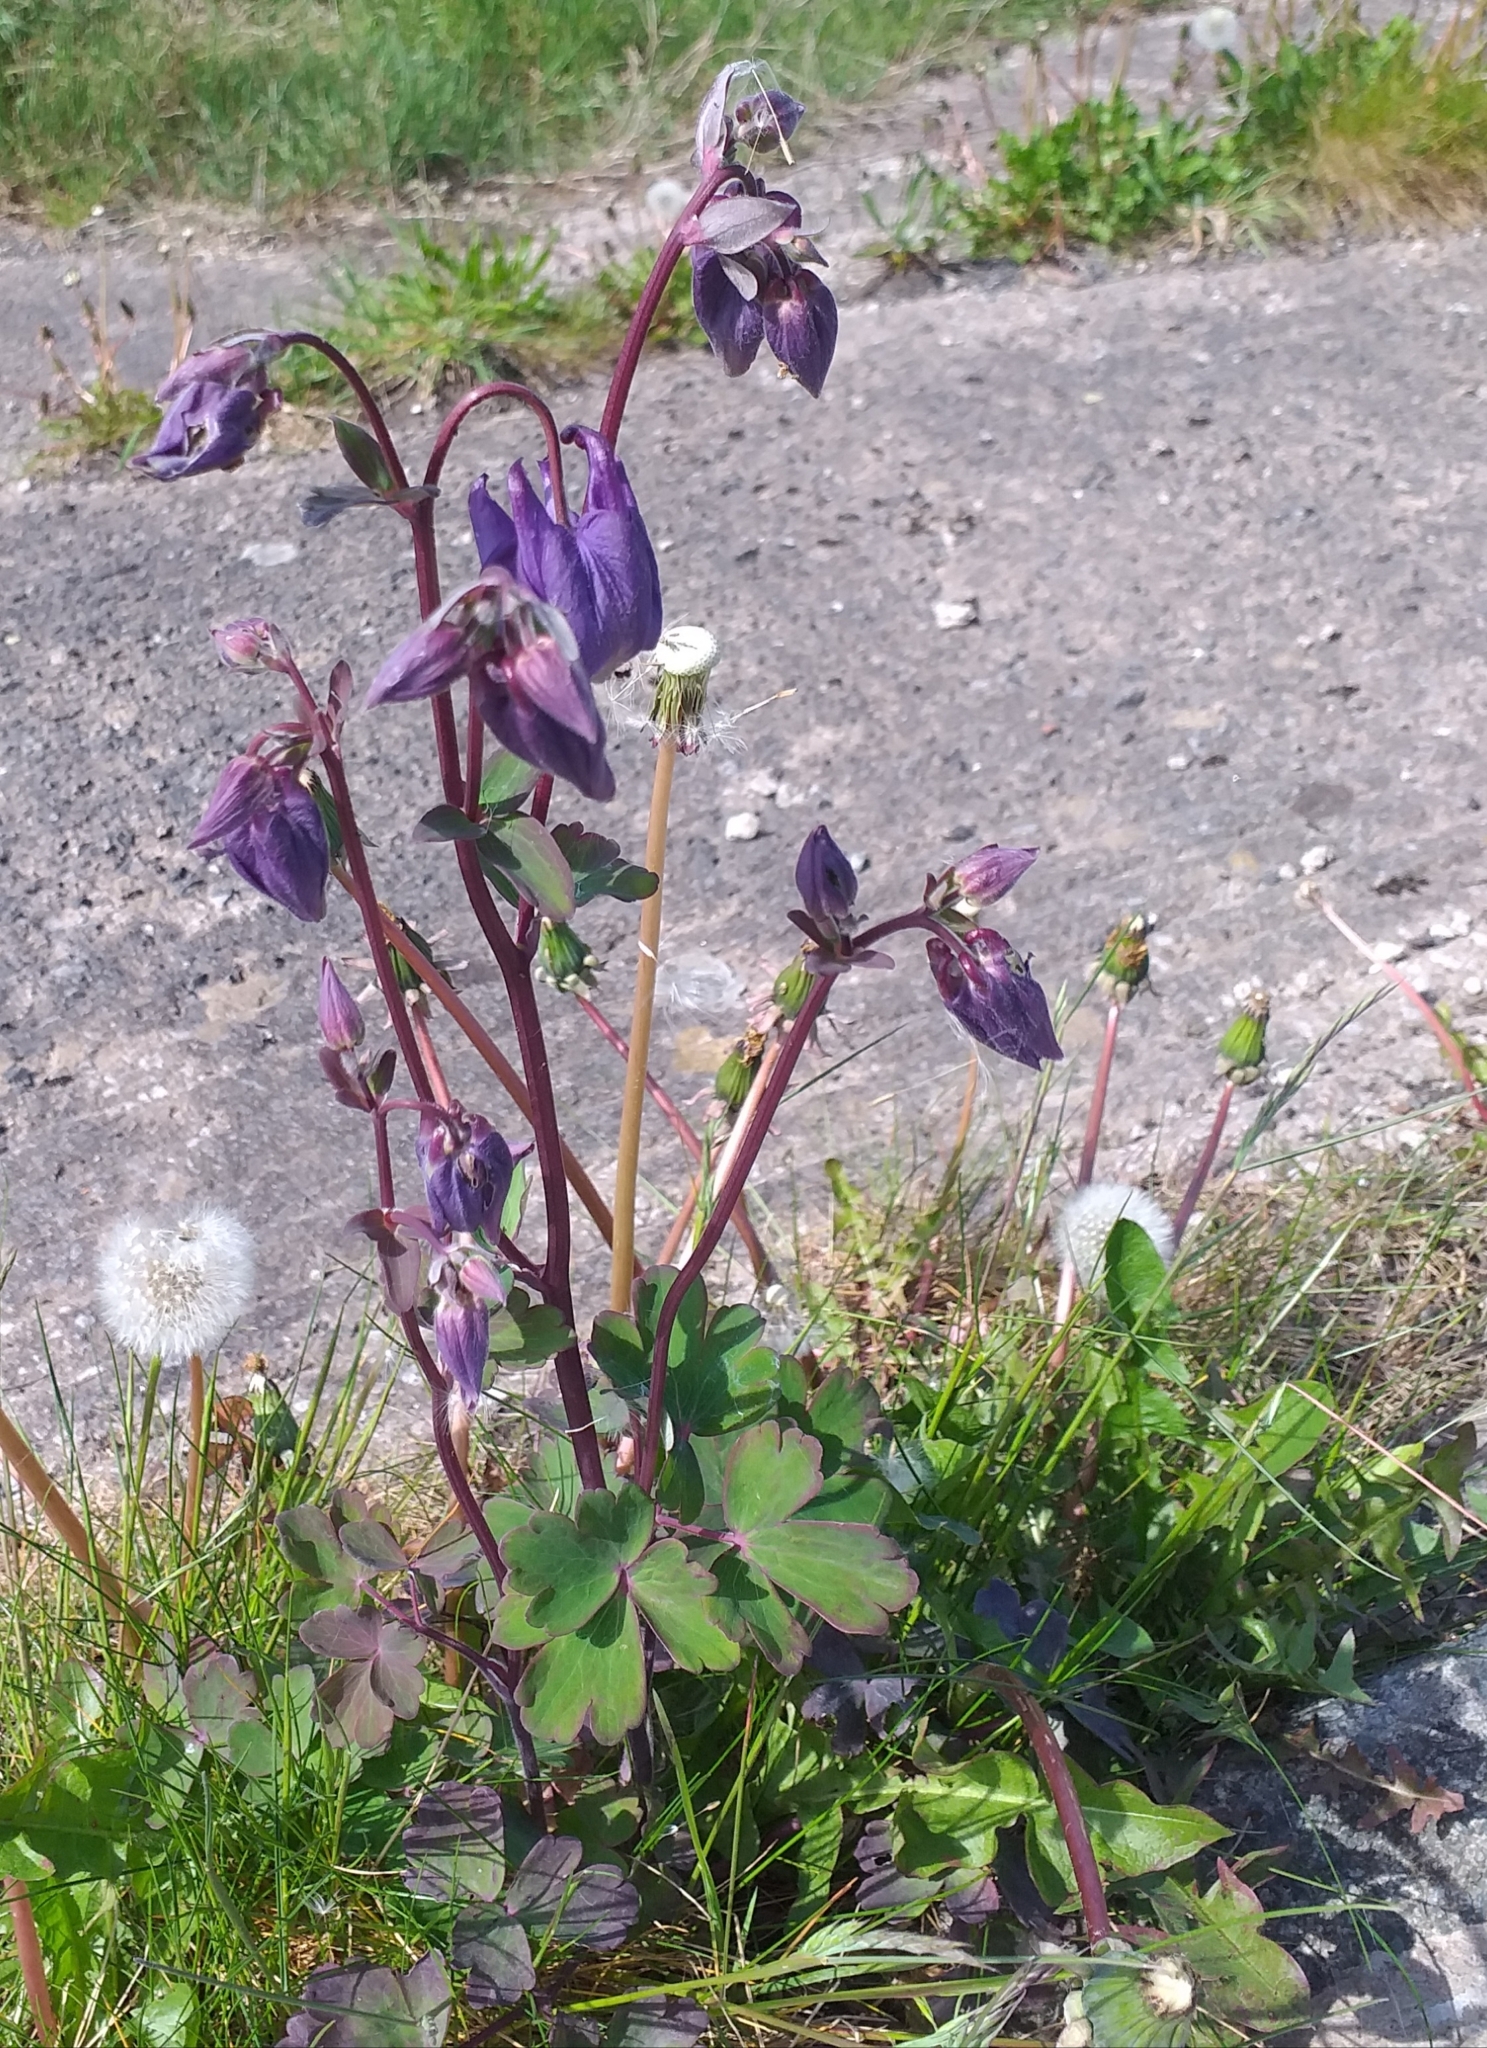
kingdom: Plantae
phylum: Tracheophyta
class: Magnoliopsida
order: Ranunculales
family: Ranunculaceae
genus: Aquilegia
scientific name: Aquilegia vulgaris
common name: Columbine
